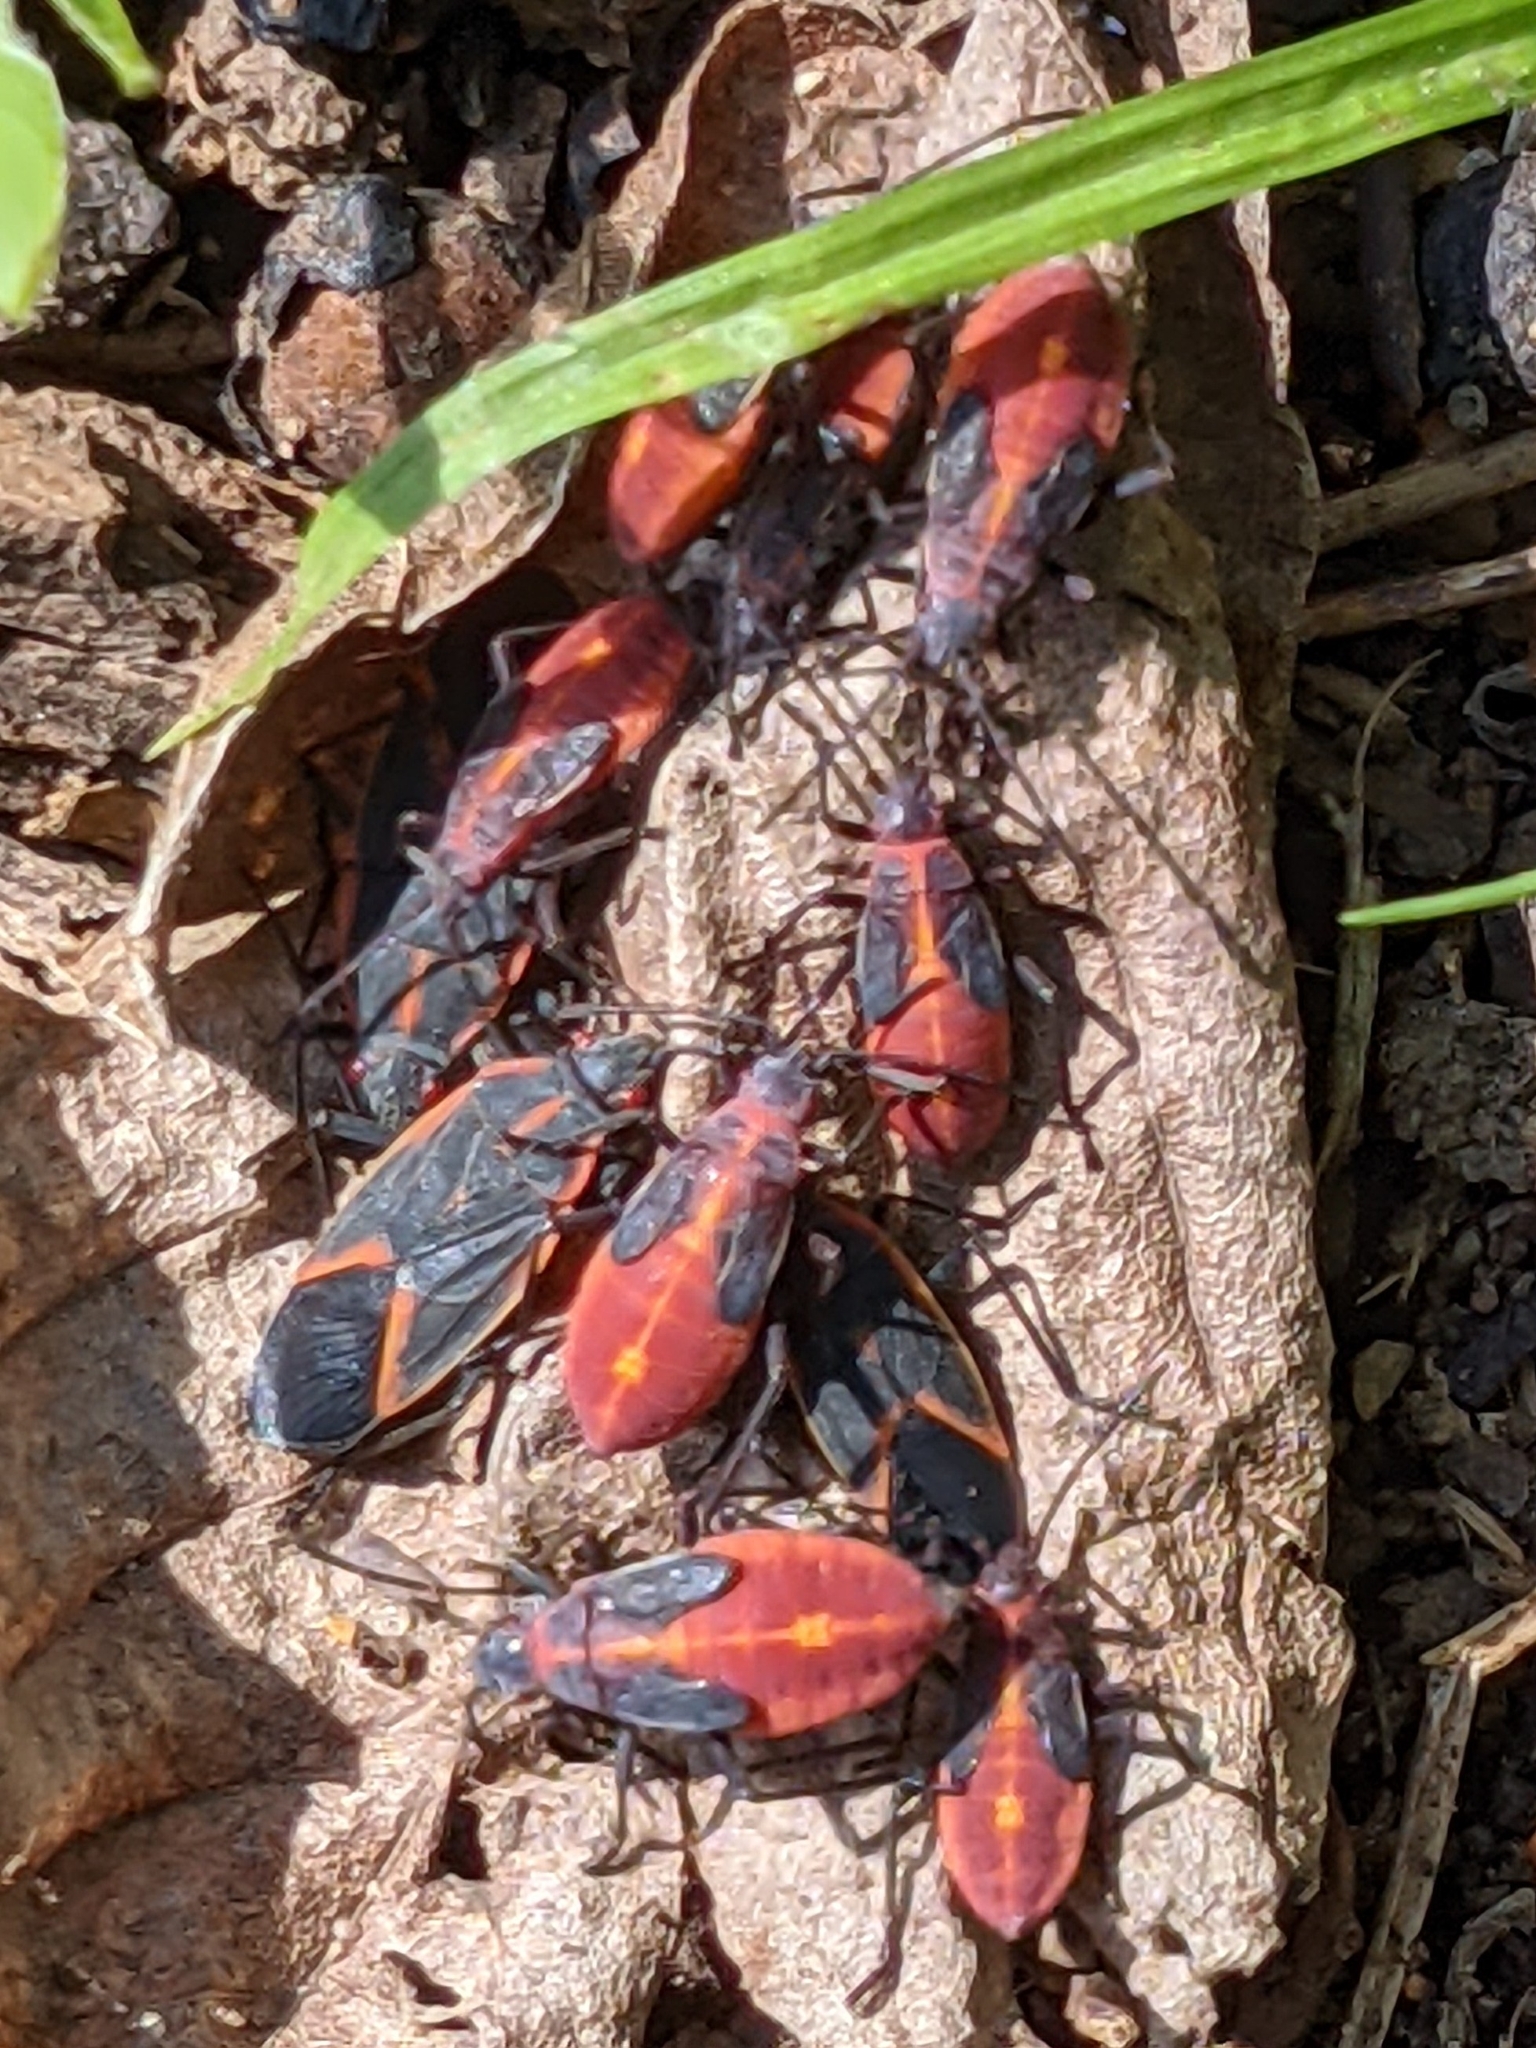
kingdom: Animalia
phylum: Arthropoda
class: Insecta
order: Hemiptera
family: Rhopalidae
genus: Boisea
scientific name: Boisea trivittata
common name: Boxelder bug
